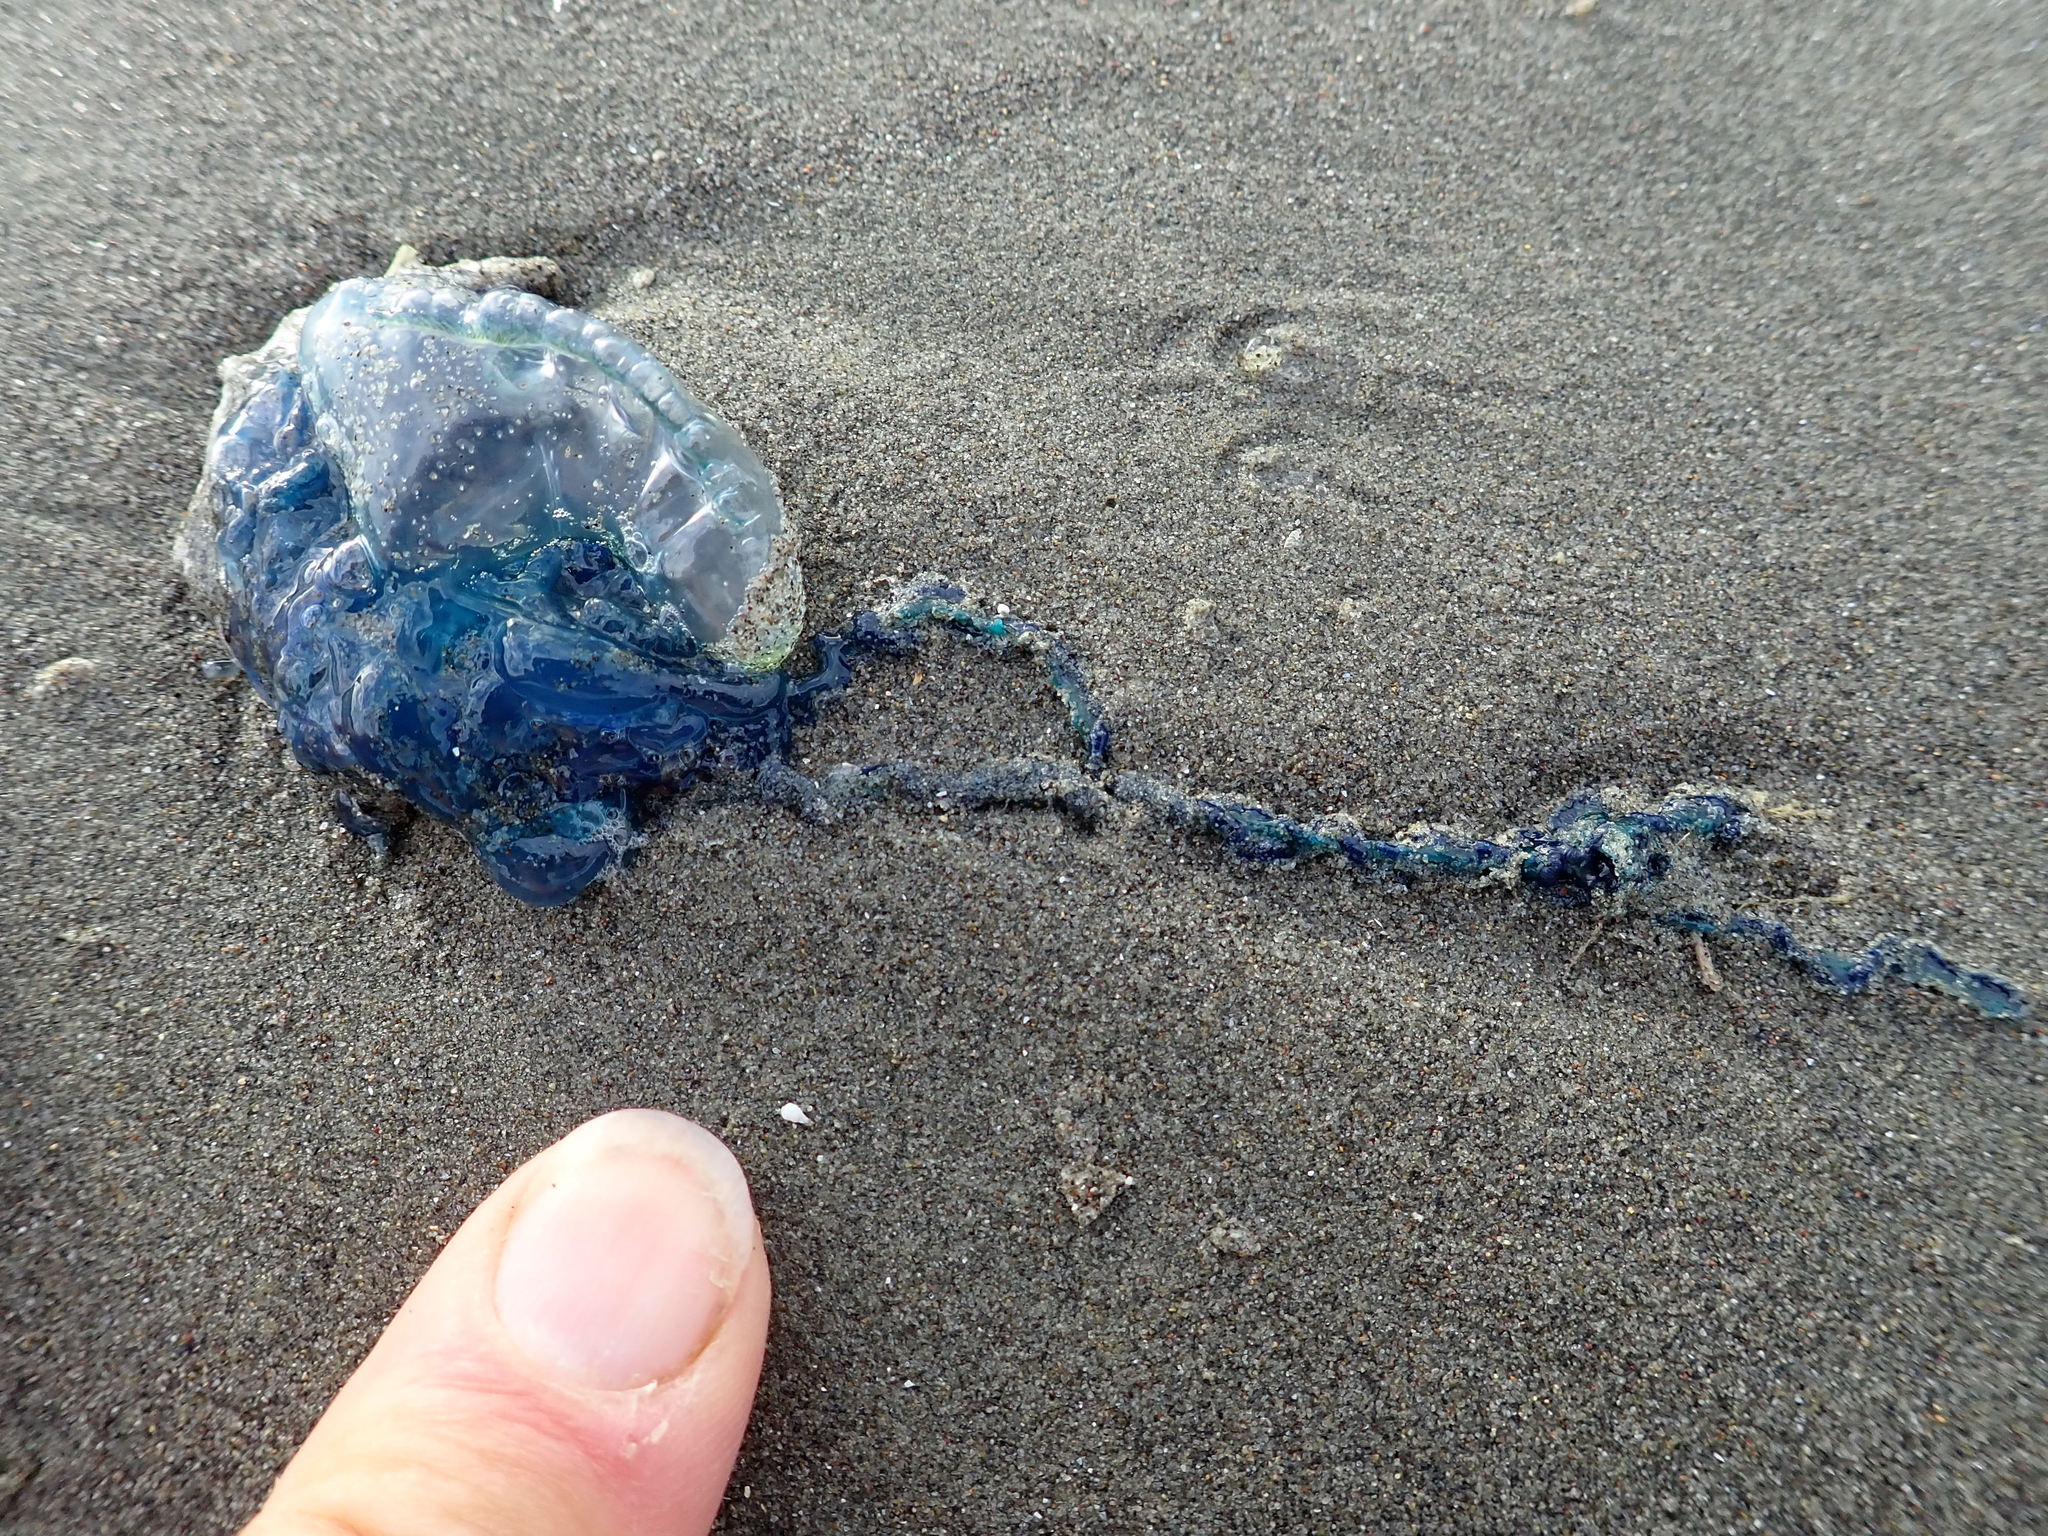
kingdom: Animalia
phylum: Cnidaria
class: Hydrozoa
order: Siphonophorae
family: Physaliidae
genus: Physalia
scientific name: Physalia physalis
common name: Portuguese man-of-war
